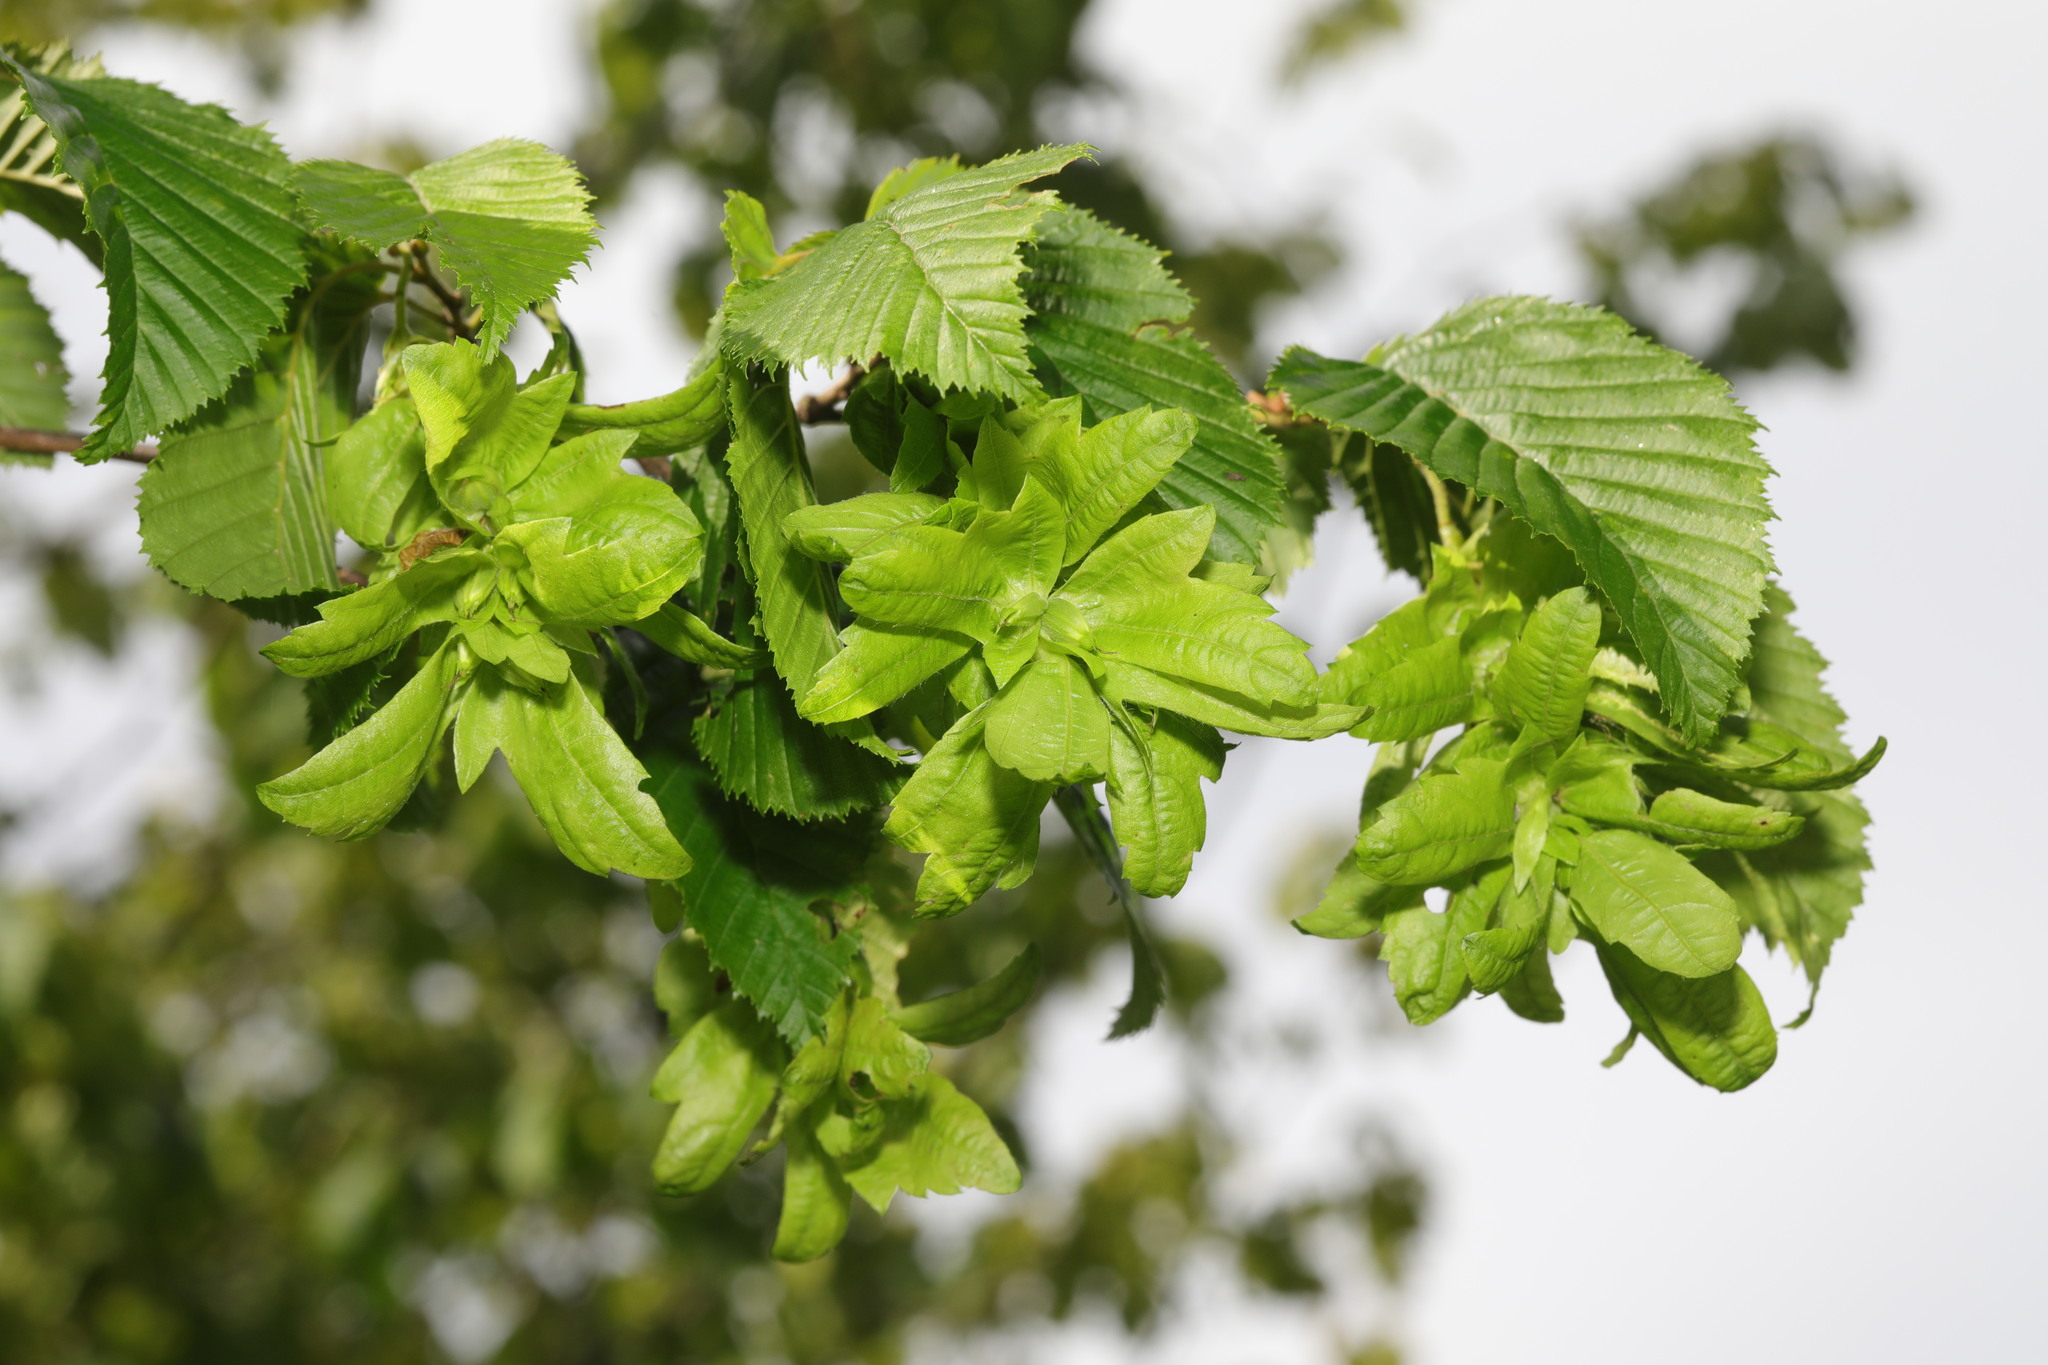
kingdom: Plantae
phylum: Tracheophyta
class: Magnoliopsida
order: Fagales
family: Betulaceae
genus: Carpinus
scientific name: Carpinus betulus
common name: Hornbeam
